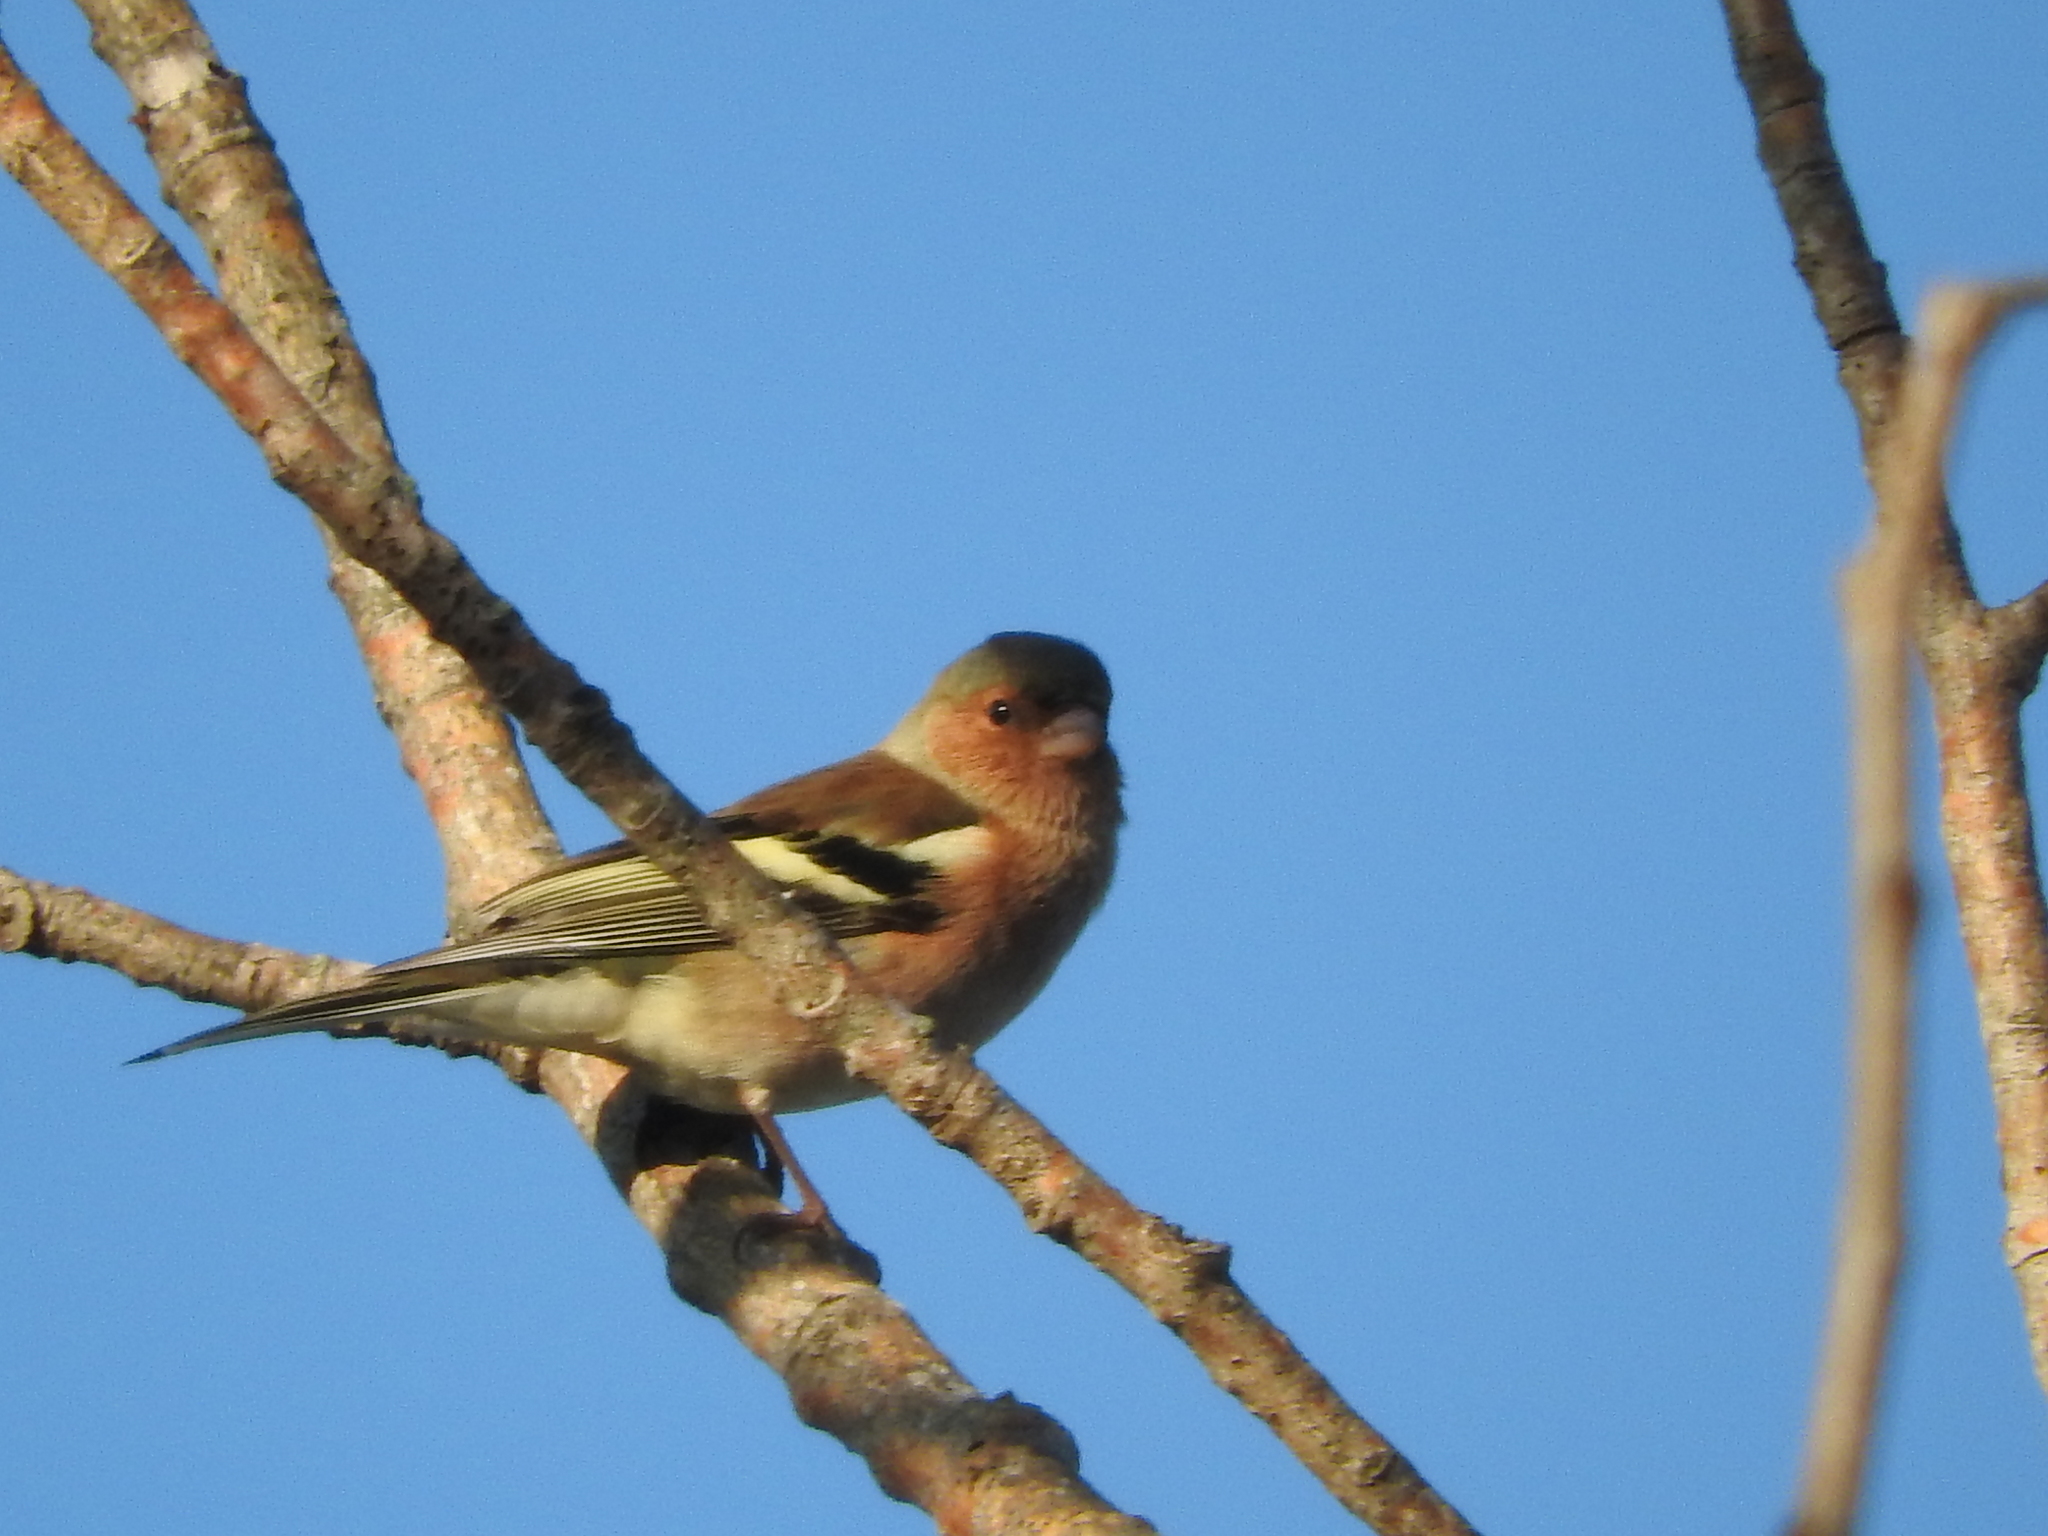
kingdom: Animalia
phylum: Chordata
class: Aves
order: Passeriformes
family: Fringillidae
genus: Fringilla
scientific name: Fringilla coelebs
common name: Common chaffinch
